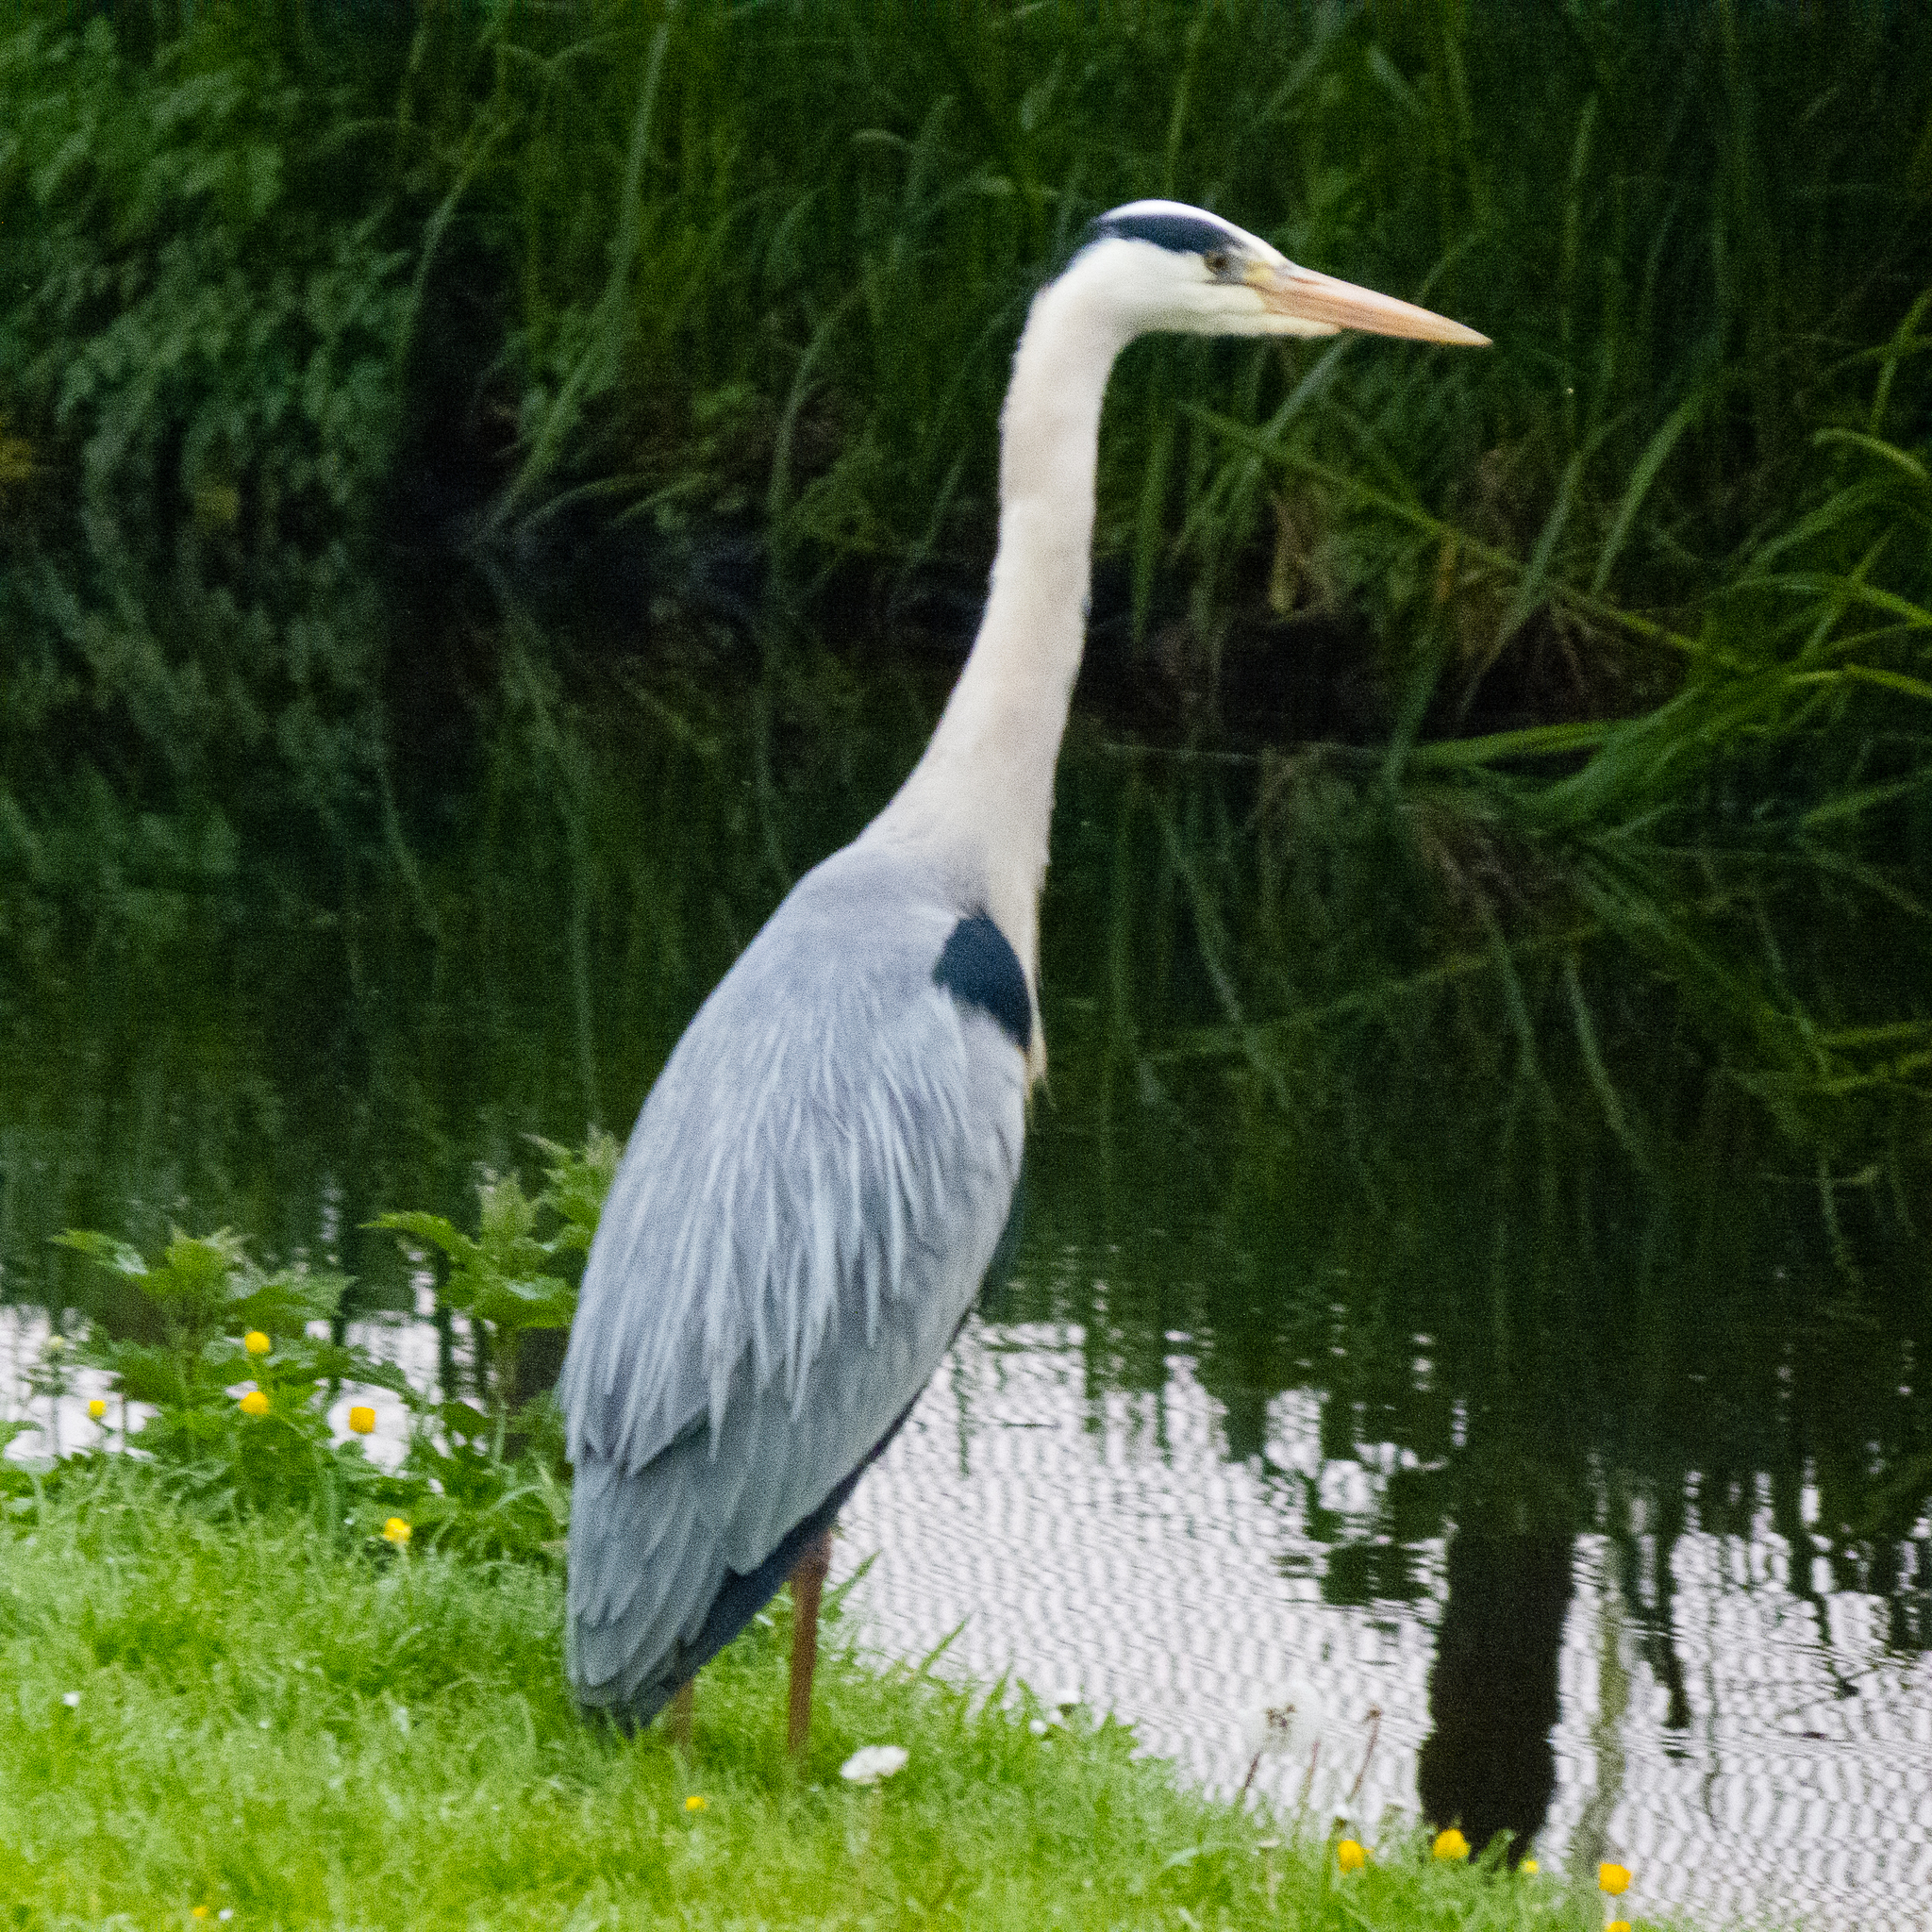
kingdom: Animalia
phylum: Chordata
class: Aves
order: Pelecaniformes
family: Ardeidae
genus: Ardea
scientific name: Ardea cinerea
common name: Grey heron
